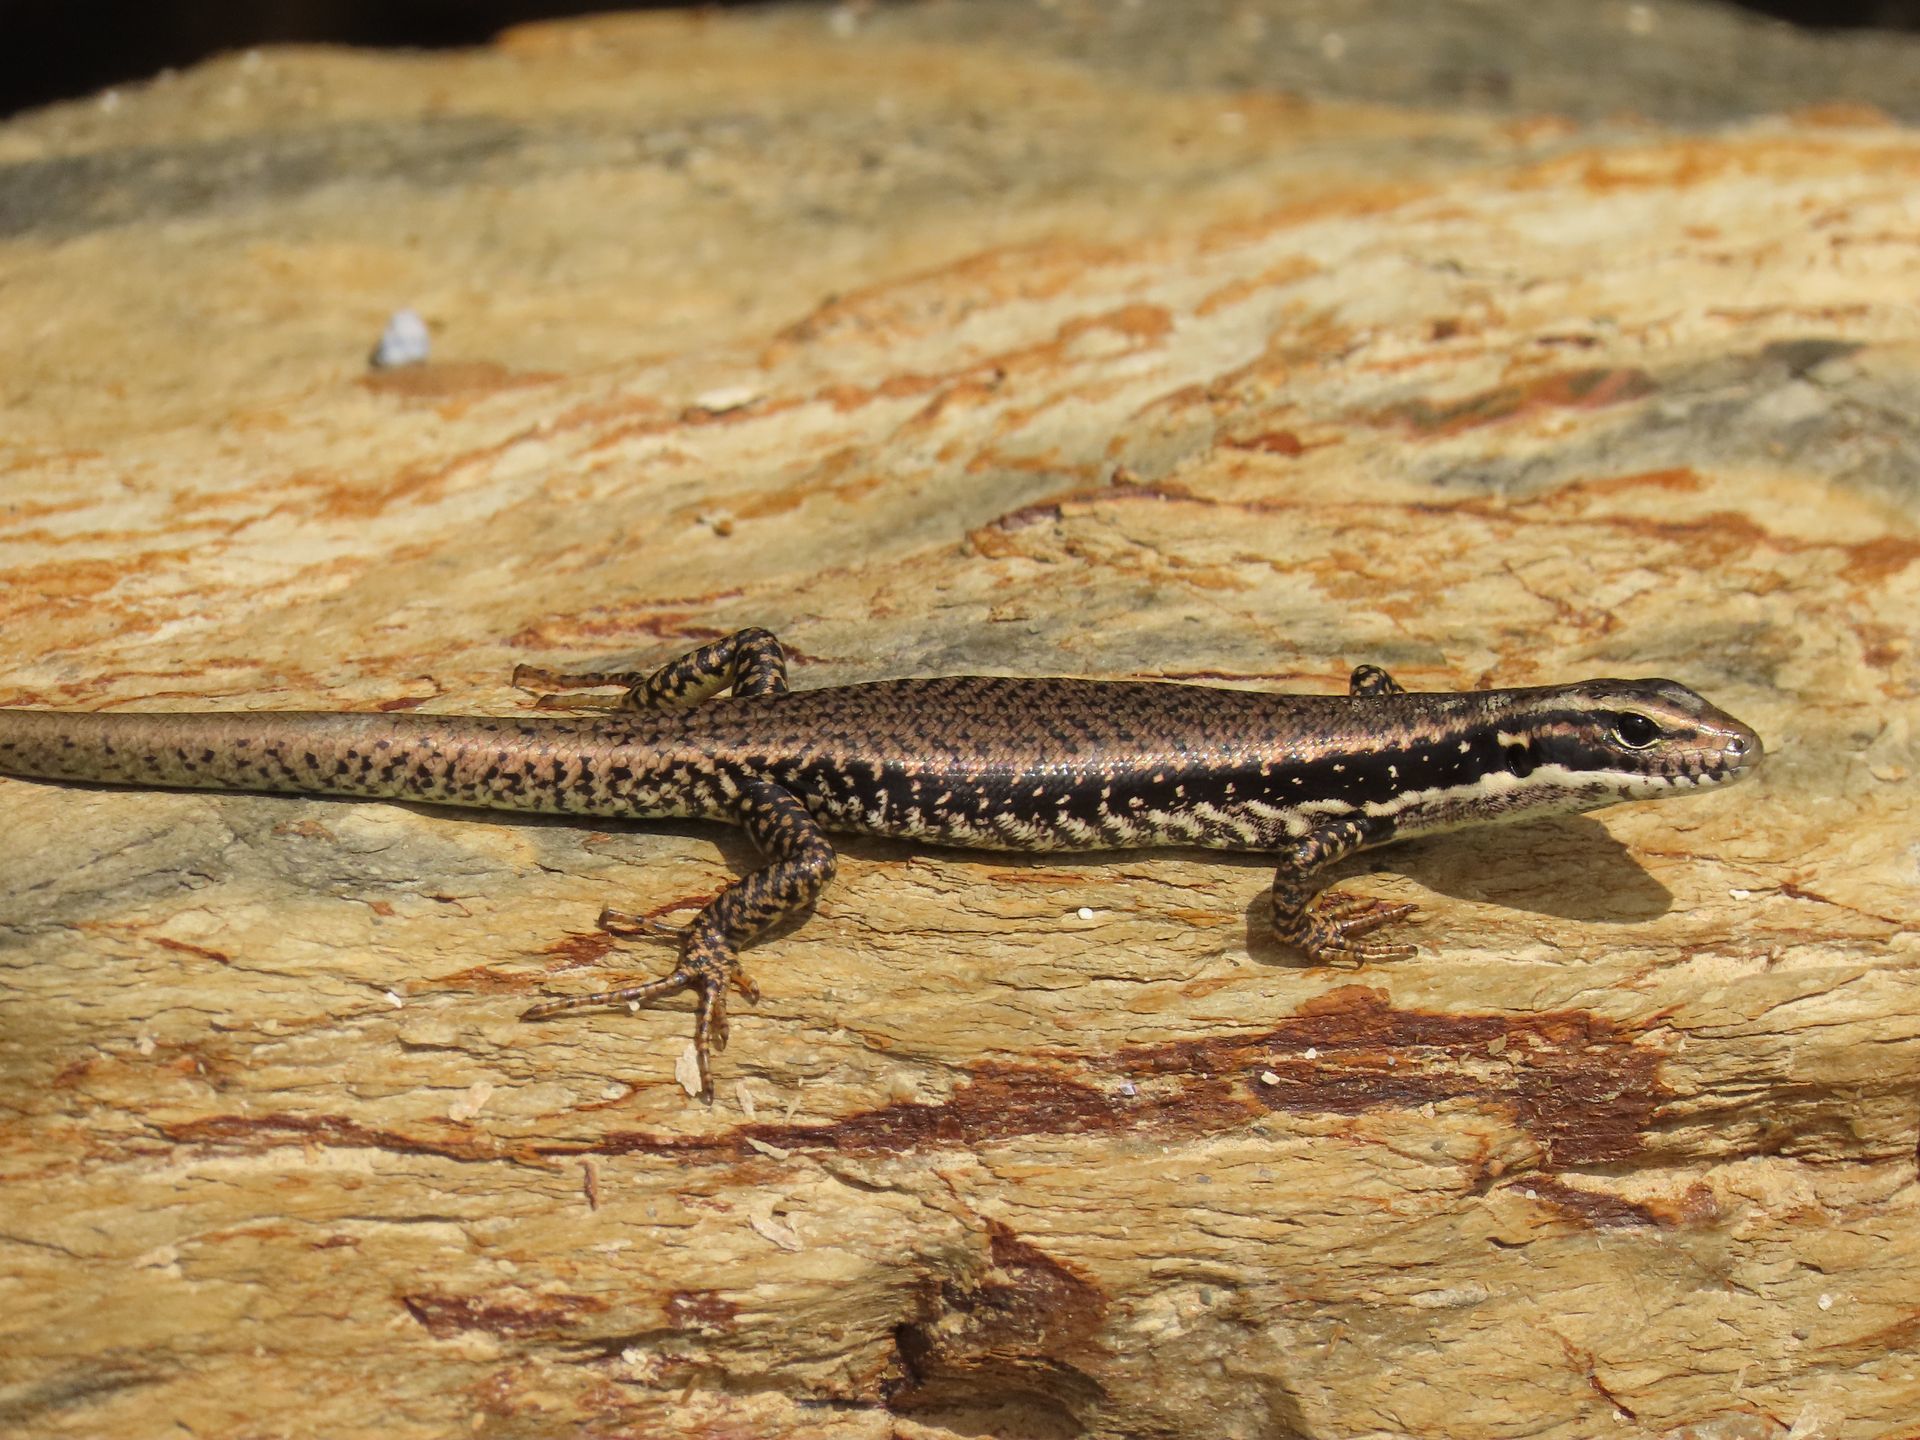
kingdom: Animalia
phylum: Chordata
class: Squamata
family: Scincidae
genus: Eulamprus
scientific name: Eulamprus heatwolei
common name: Warm-temperate water-skink
